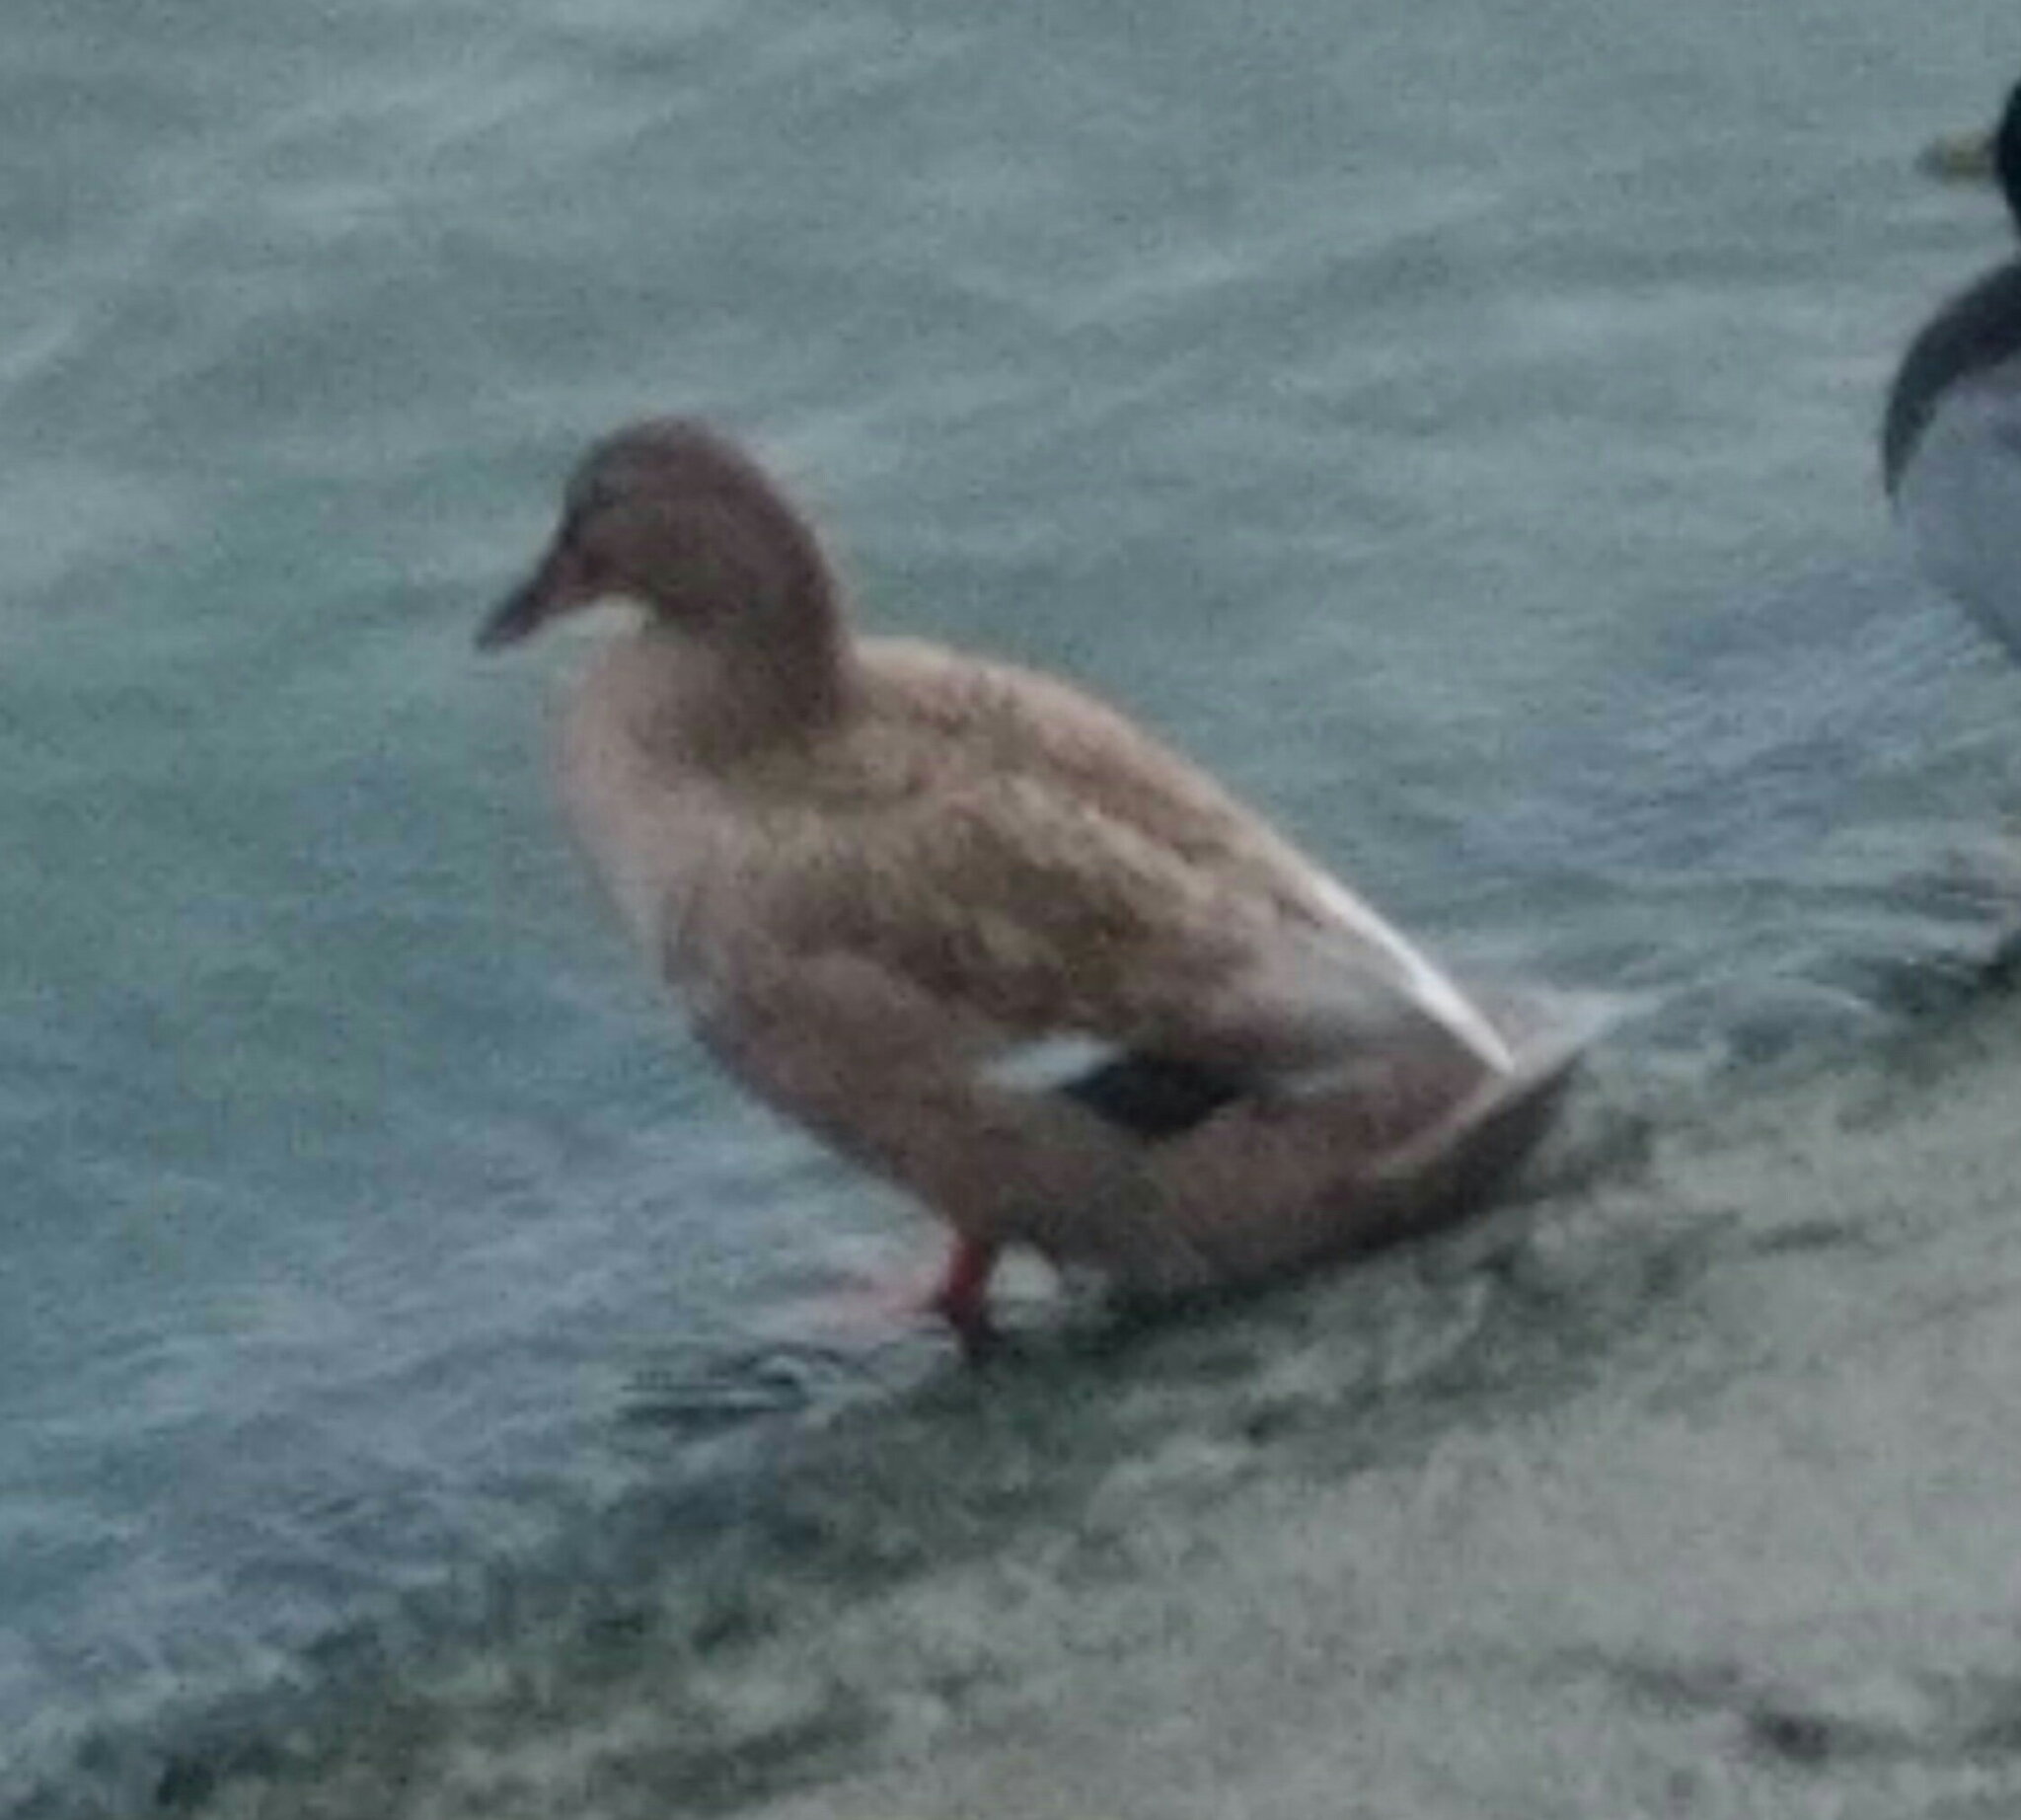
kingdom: Animalia
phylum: Chordata
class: Aves
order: Anseriformes
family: Anatidae
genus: Anas
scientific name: Anas platyrhynchos
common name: Mallard
